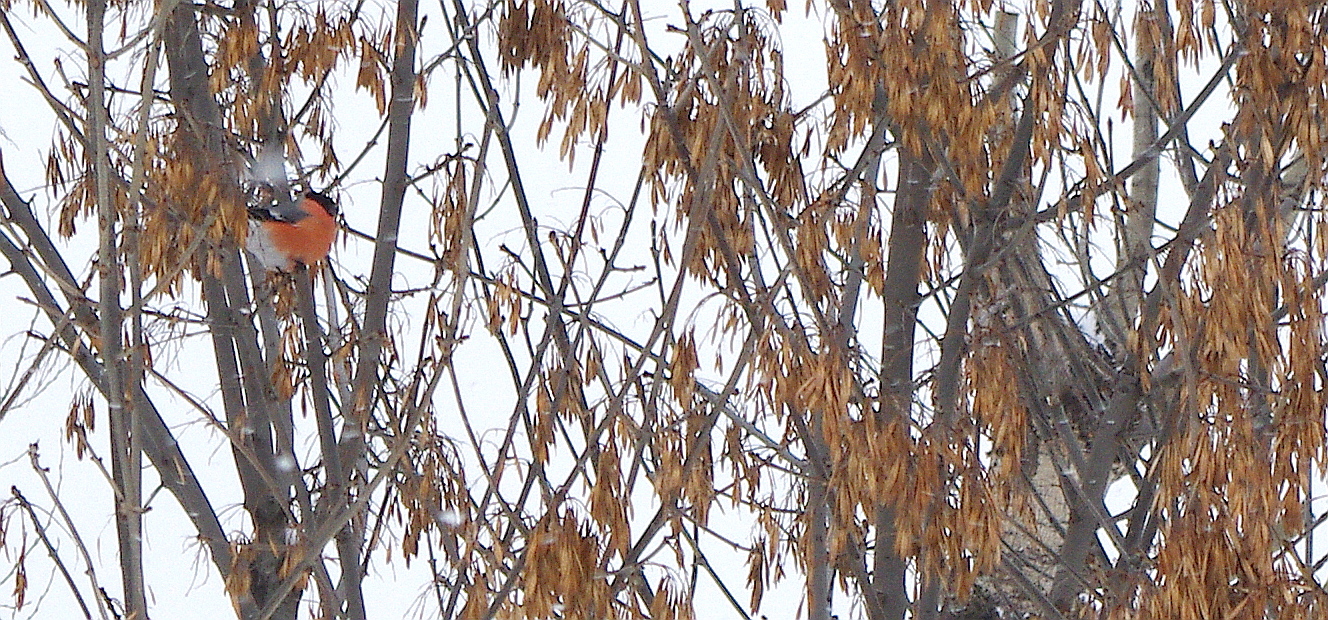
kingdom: Plantae
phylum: Tracheophyta
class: Magnoliopsida
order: Lamiales
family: Oleaceae
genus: Fraxinus
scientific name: Fraxinus pennsylvanica
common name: Green ash
